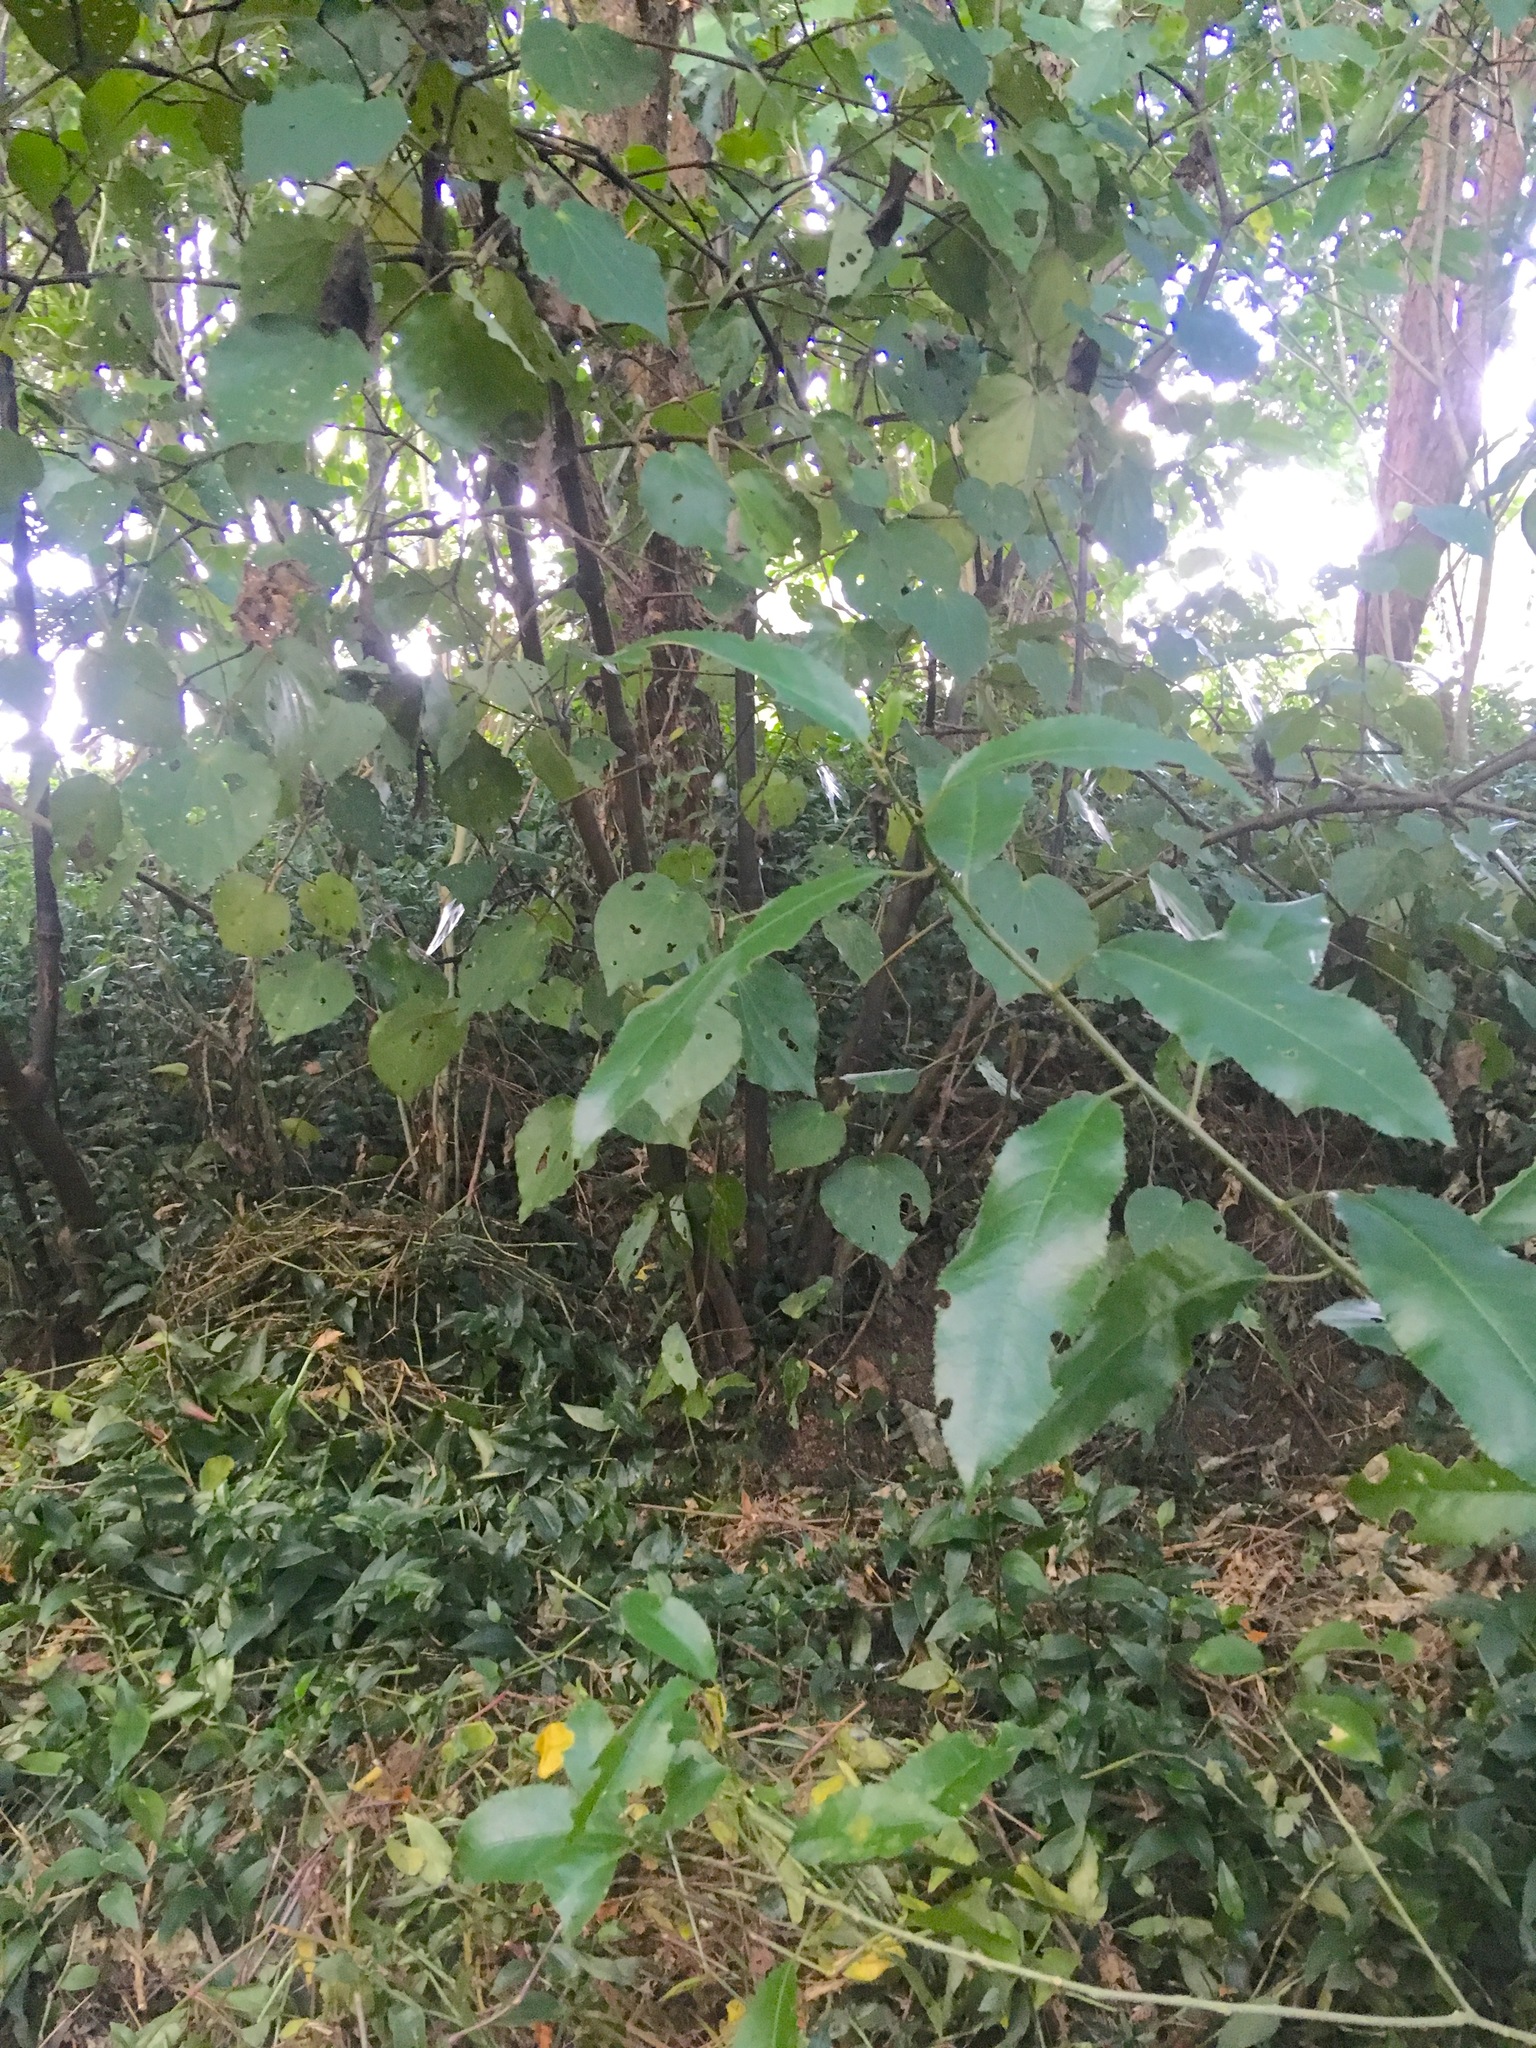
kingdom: Plantae
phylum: Tracheophyta
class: Magnoliopsida
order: Piperales
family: Piperaceae
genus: Macropiper
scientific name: Macropiper excelsum
